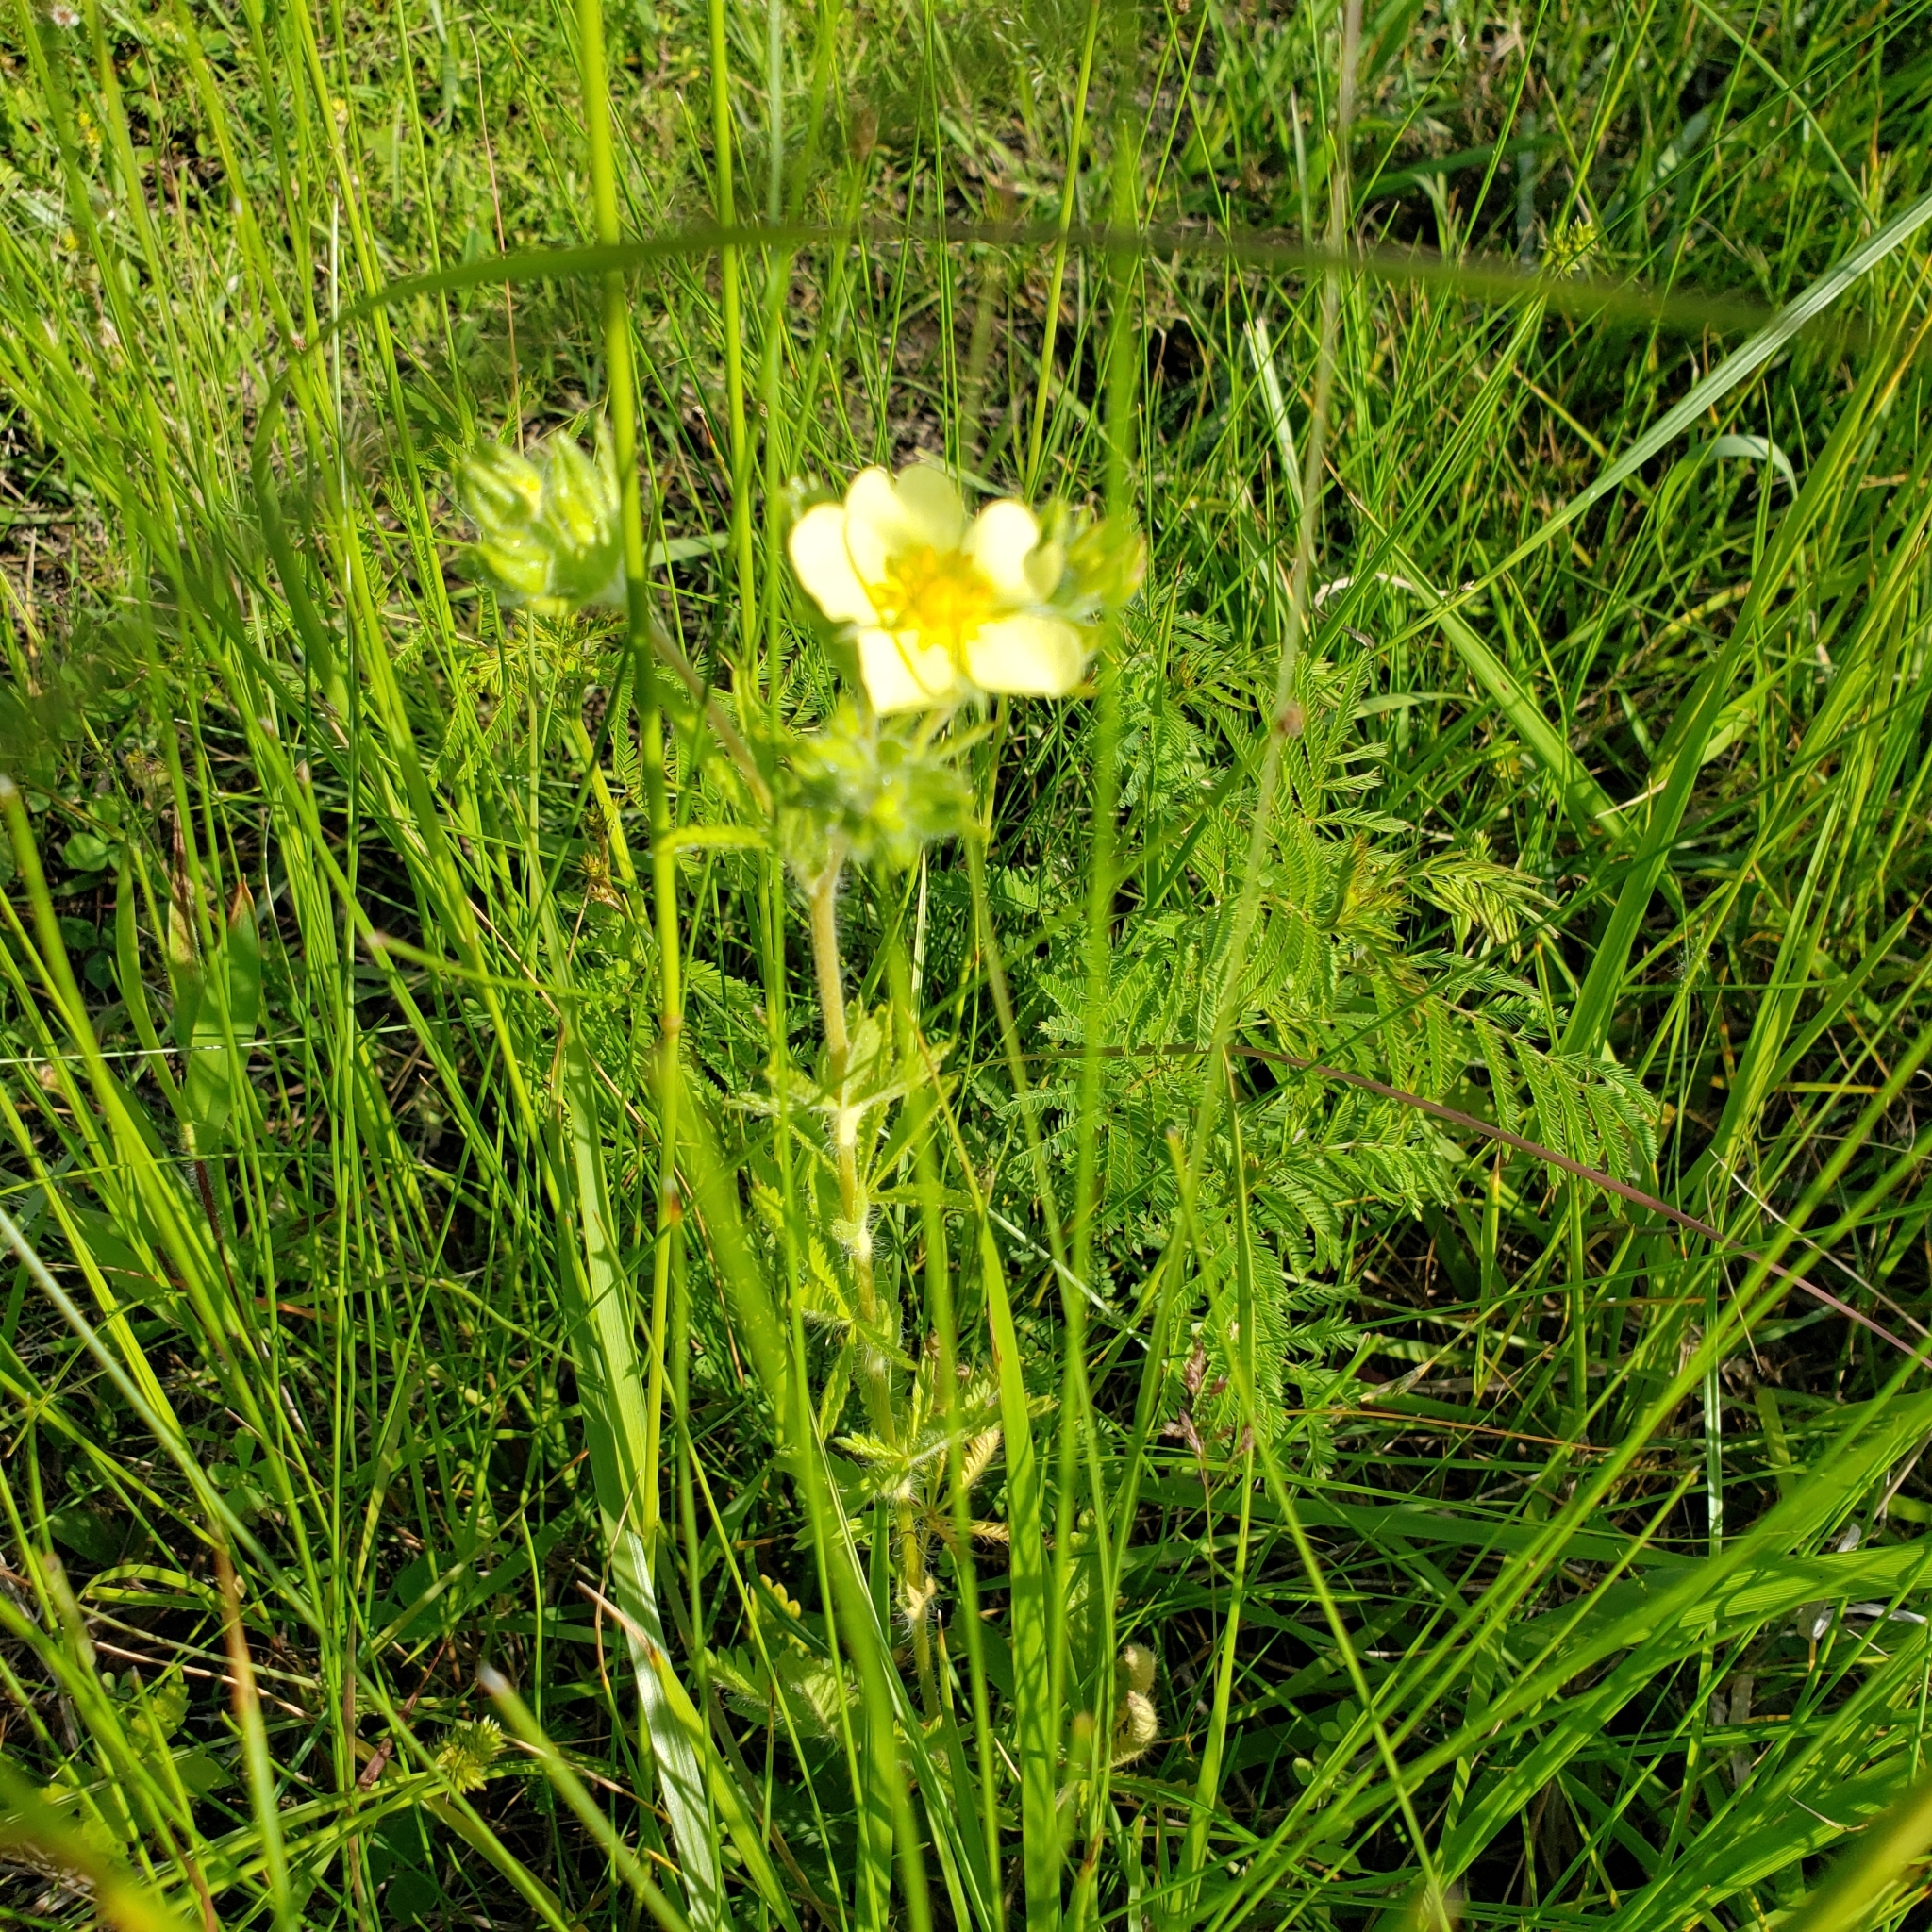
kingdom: Plantae
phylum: Tracheophyta
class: Magnoliopsida
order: Rosales
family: Rosaceae
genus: Potentilla
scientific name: Potentilla recta
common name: Sulphur cinquefoil
